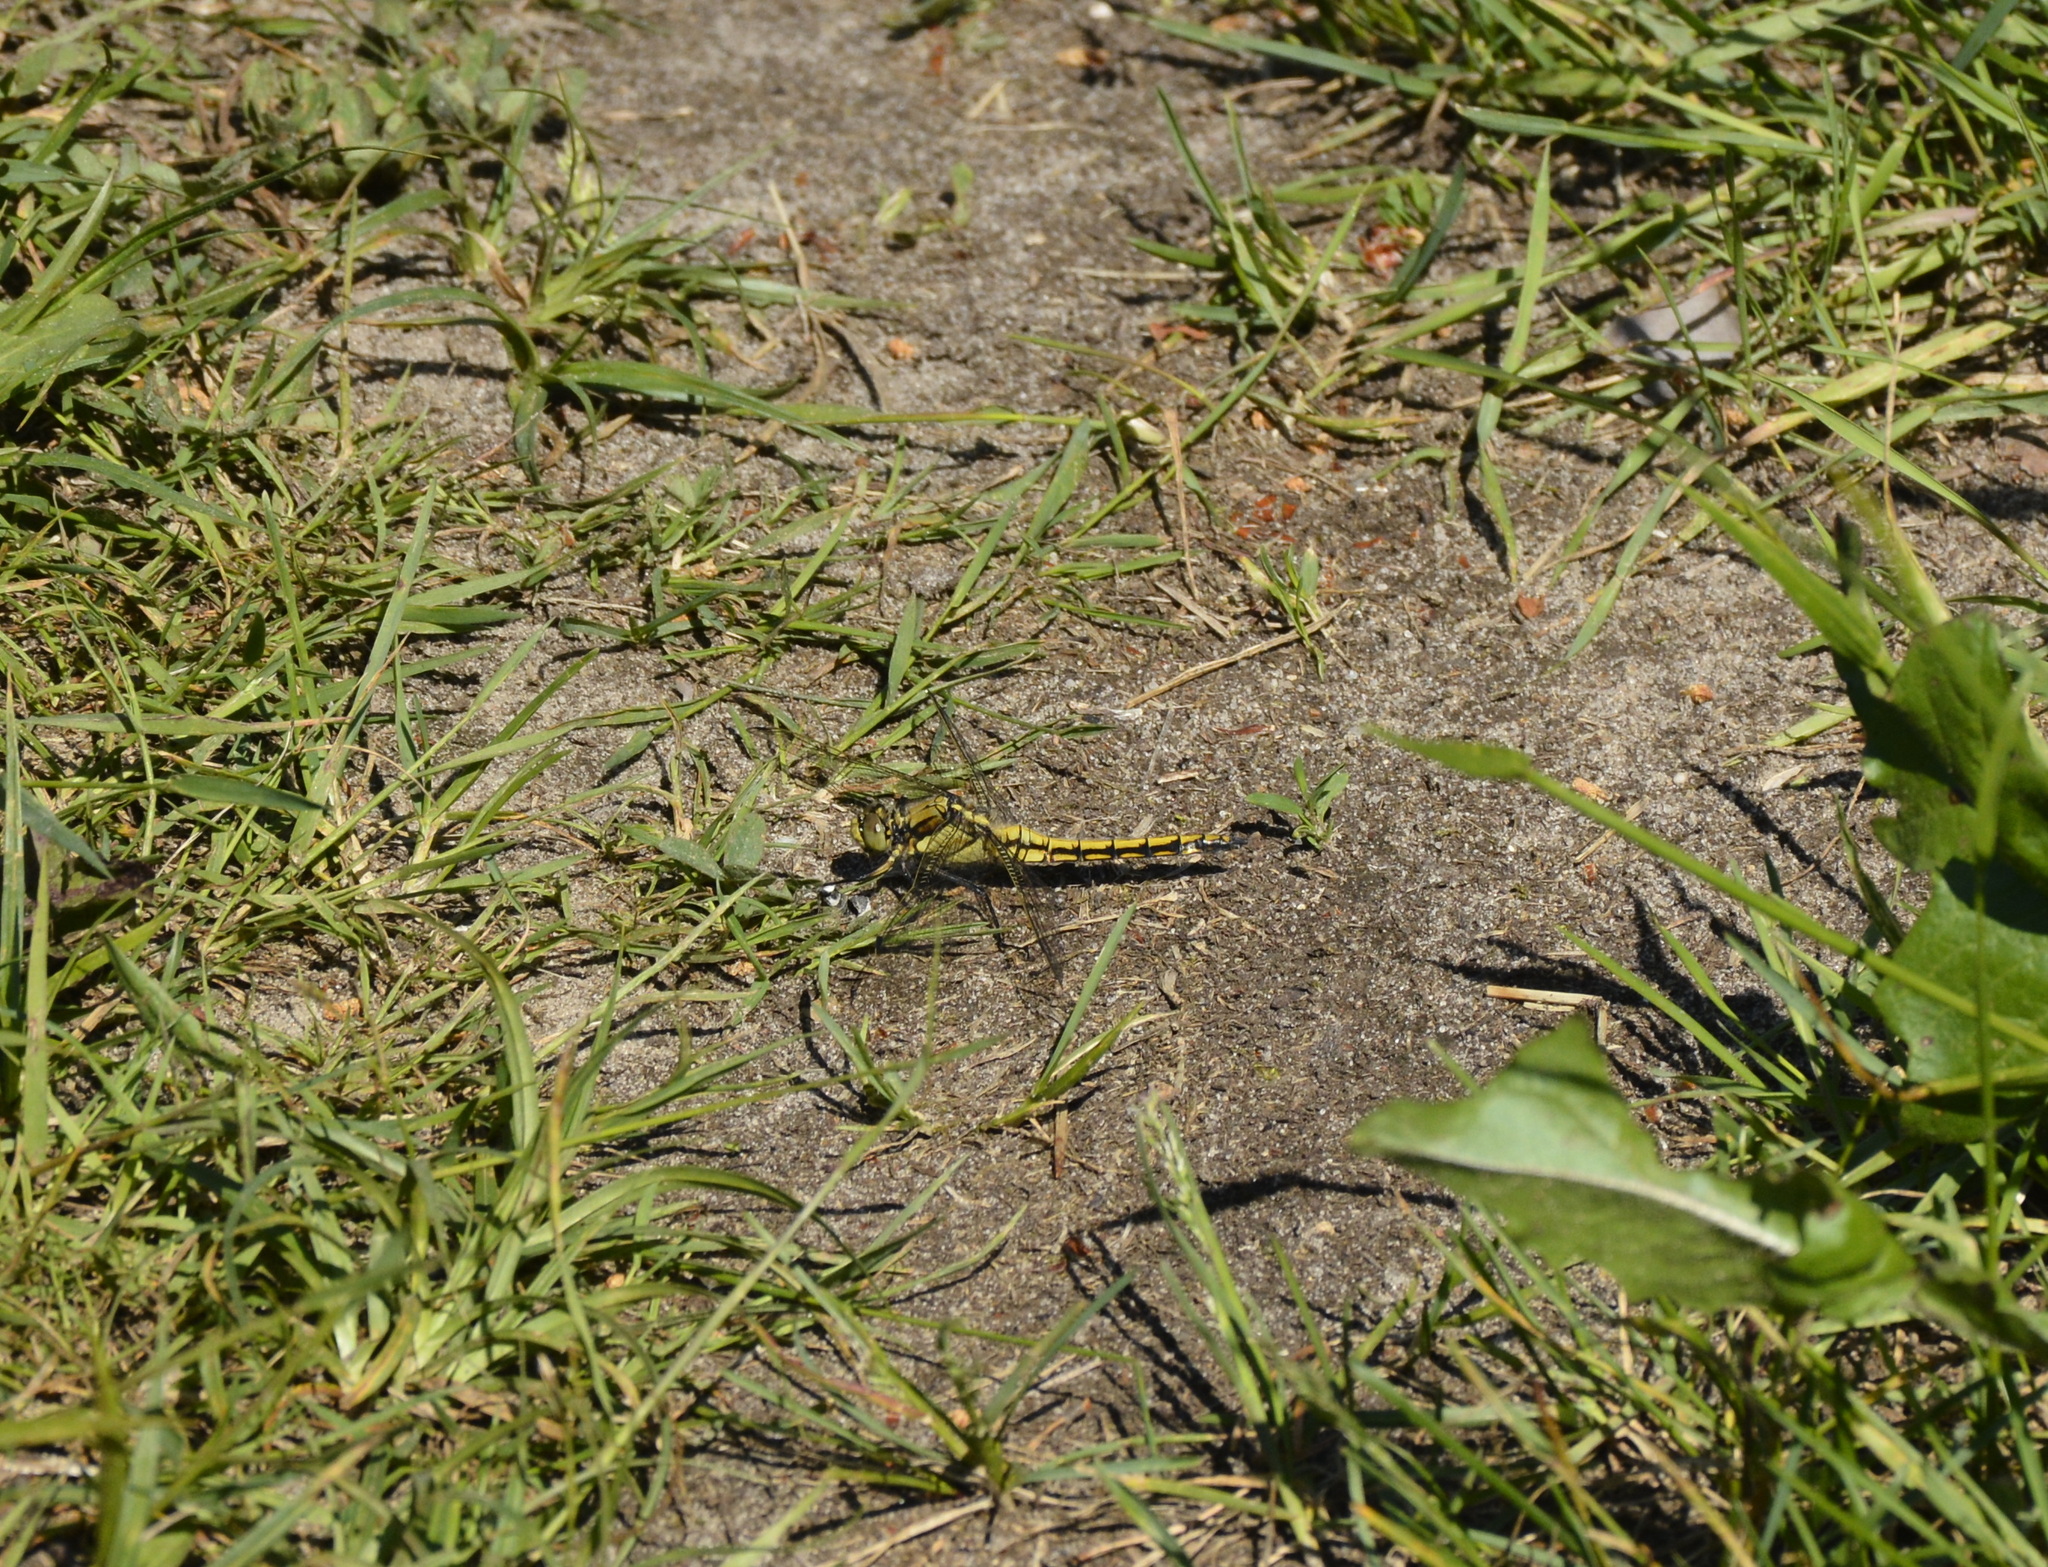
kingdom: Animalia
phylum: Arthropoda
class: Insecta
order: Odonata
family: Libellulidae
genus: Orthetrum
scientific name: Orthetrum cancellatum
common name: Black-tailed skimmer
